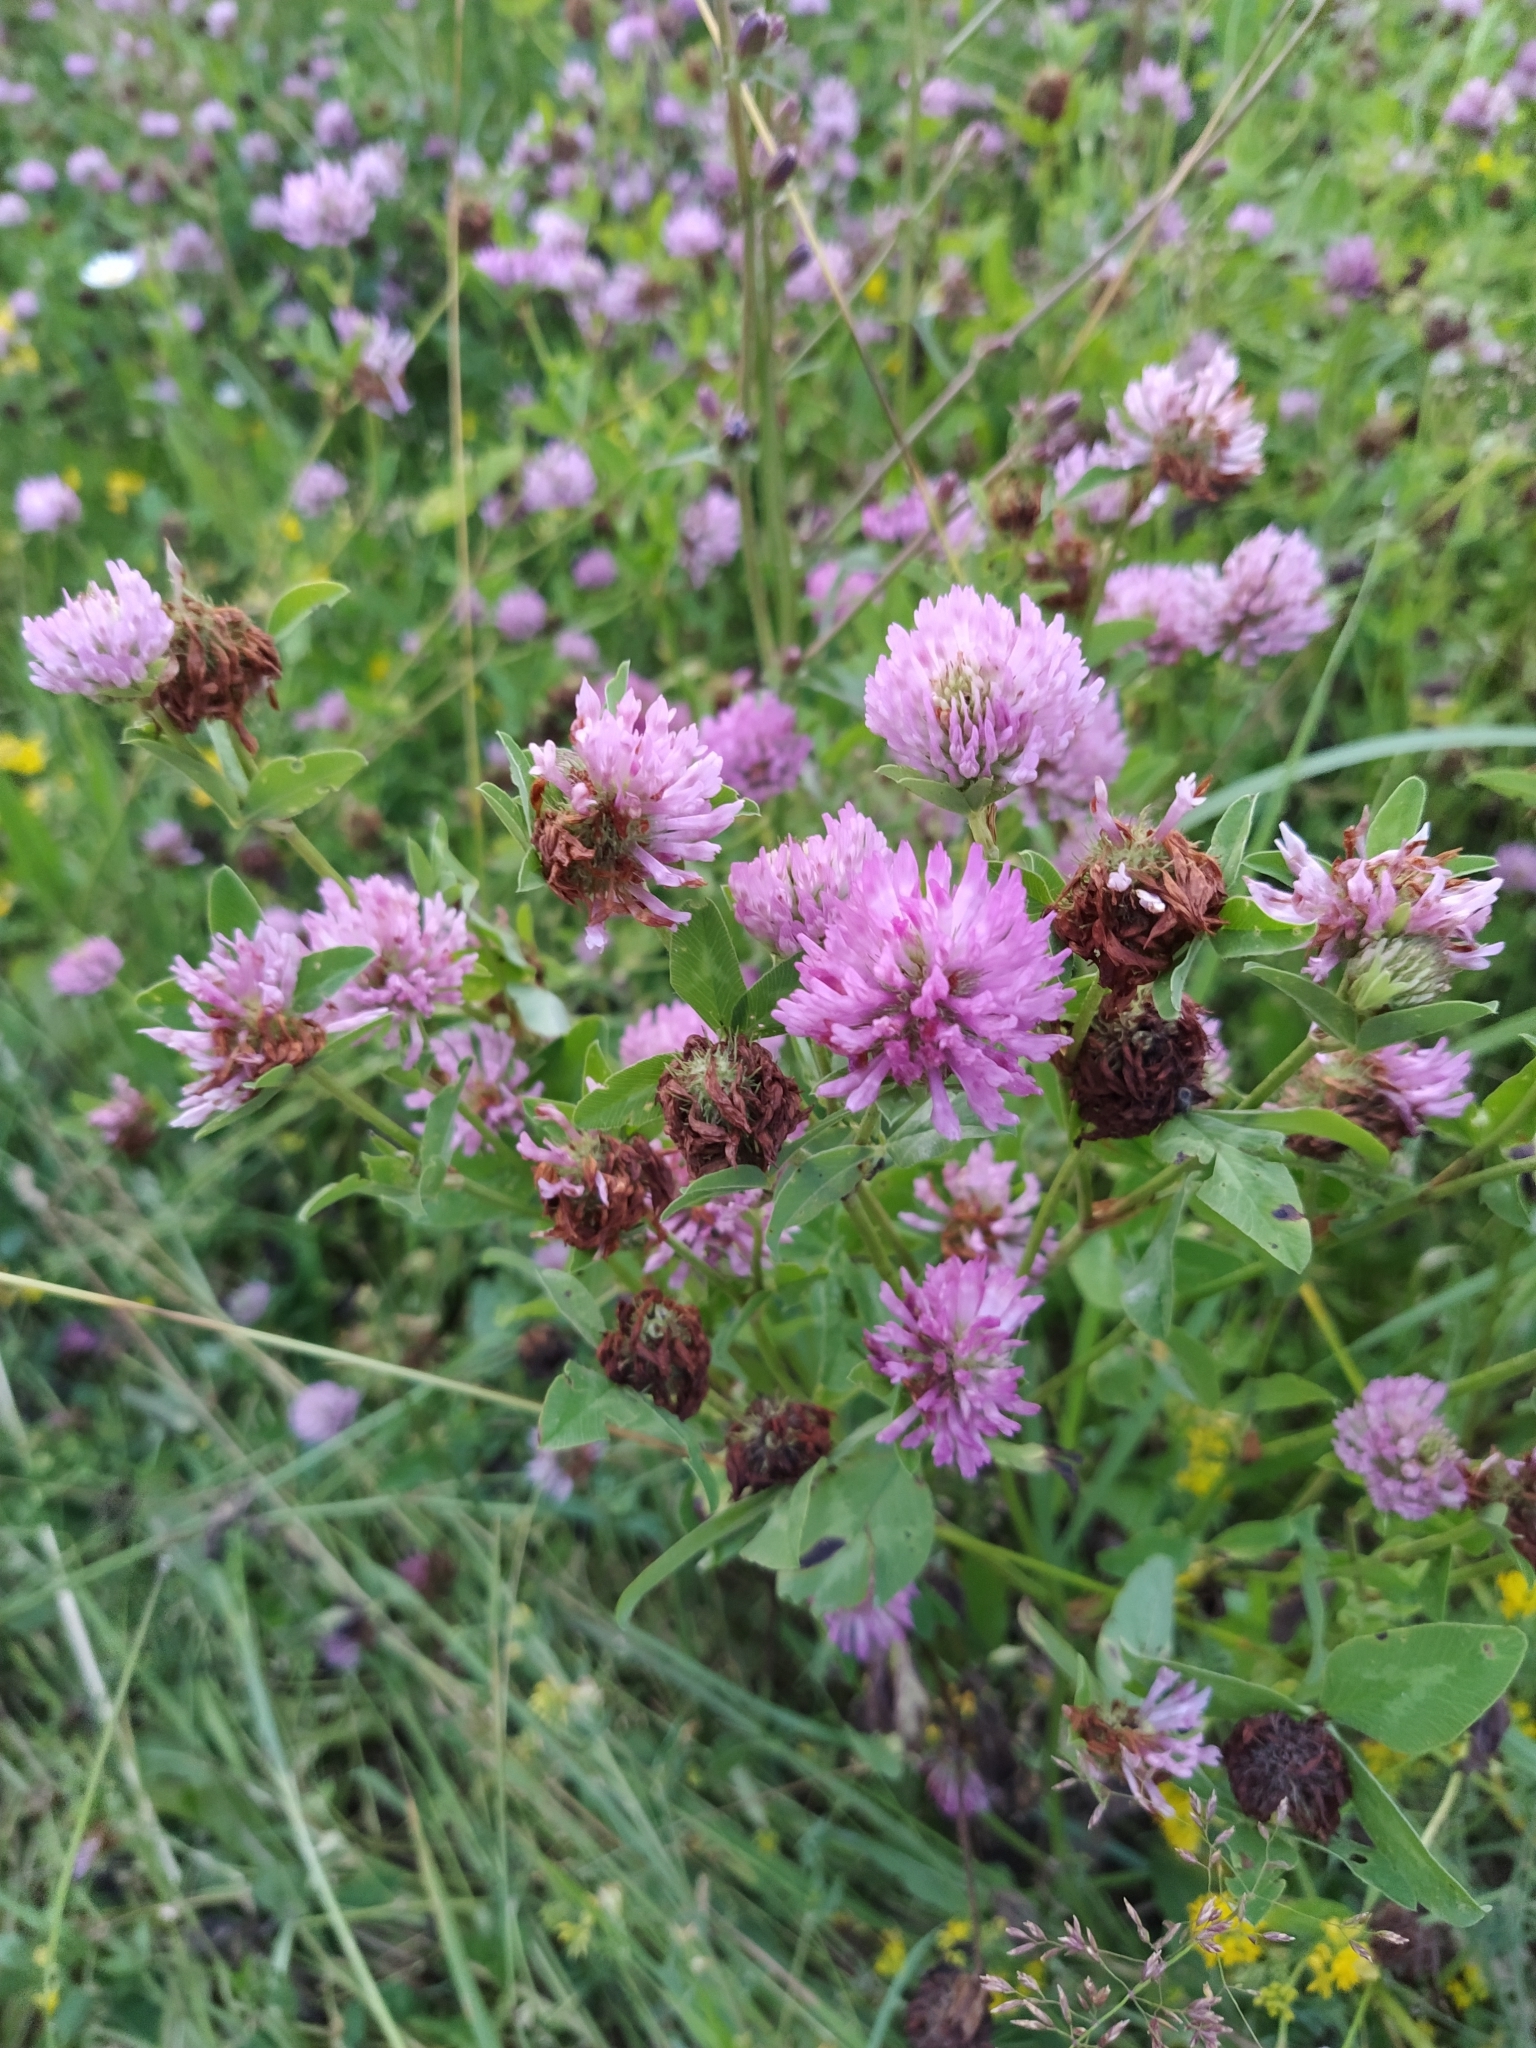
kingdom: Plantae
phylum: Tracheophyta
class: Magnoliopsida
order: Fabales
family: Fabaceae
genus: Trifolium
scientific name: Trifolium pratense
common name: Red clover
